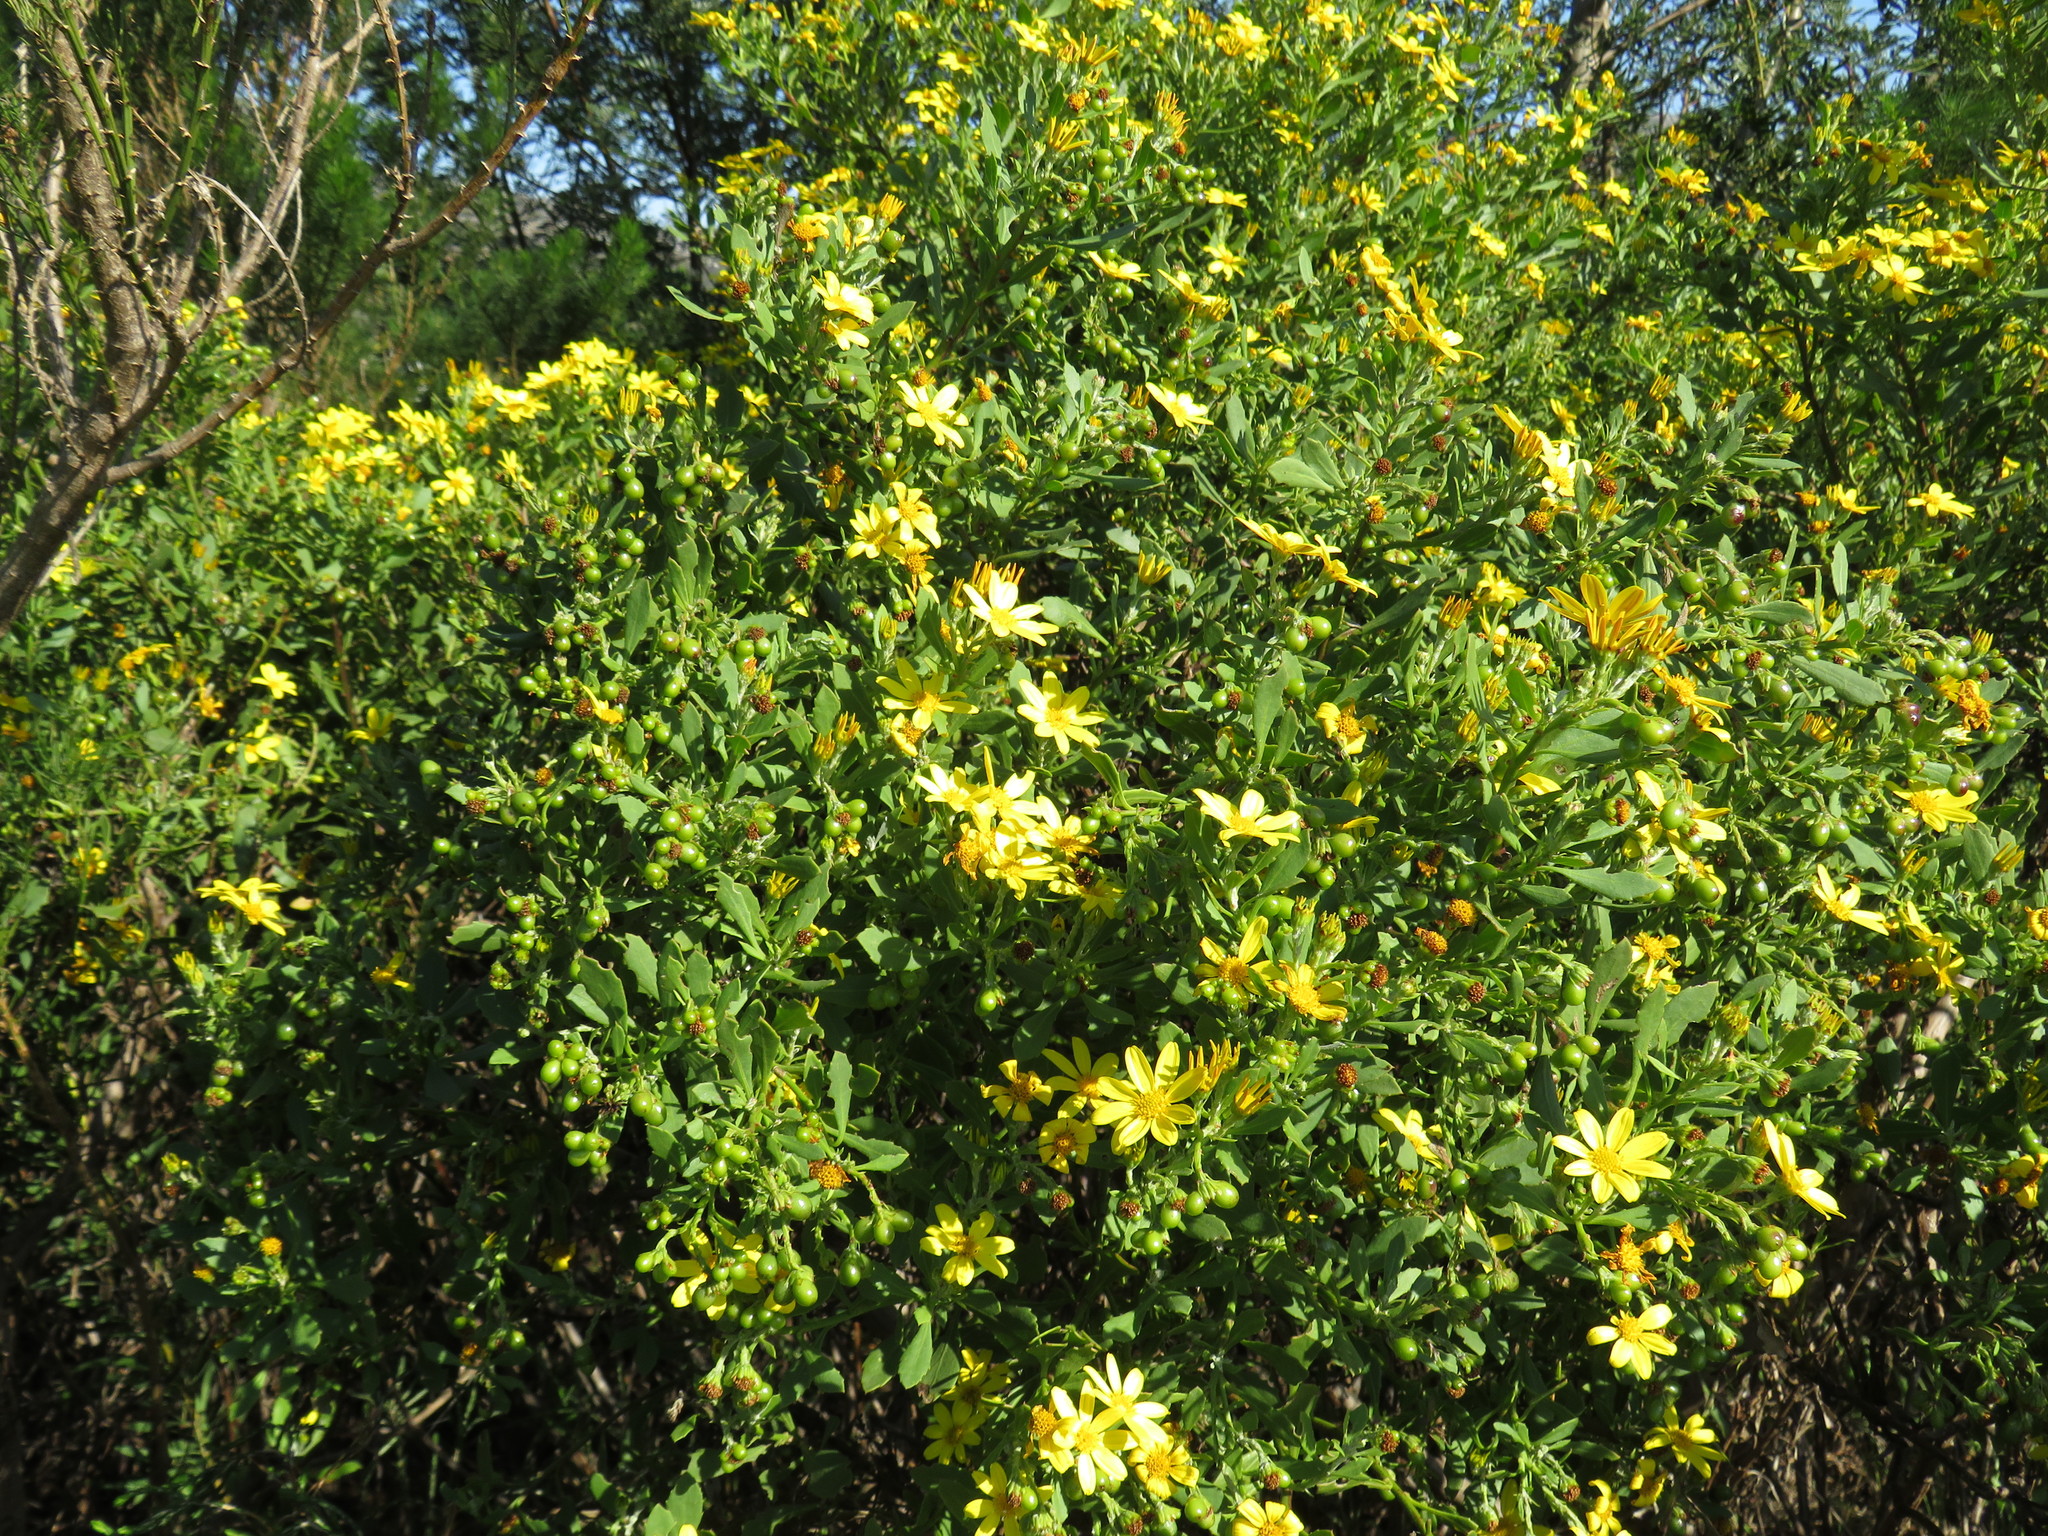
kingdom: Plantae
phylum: Tracheophyta
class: Magnoliopsida
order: Asterales
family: Asteraceae
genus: Osteospermum
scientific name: Osteospermum moniliferum
